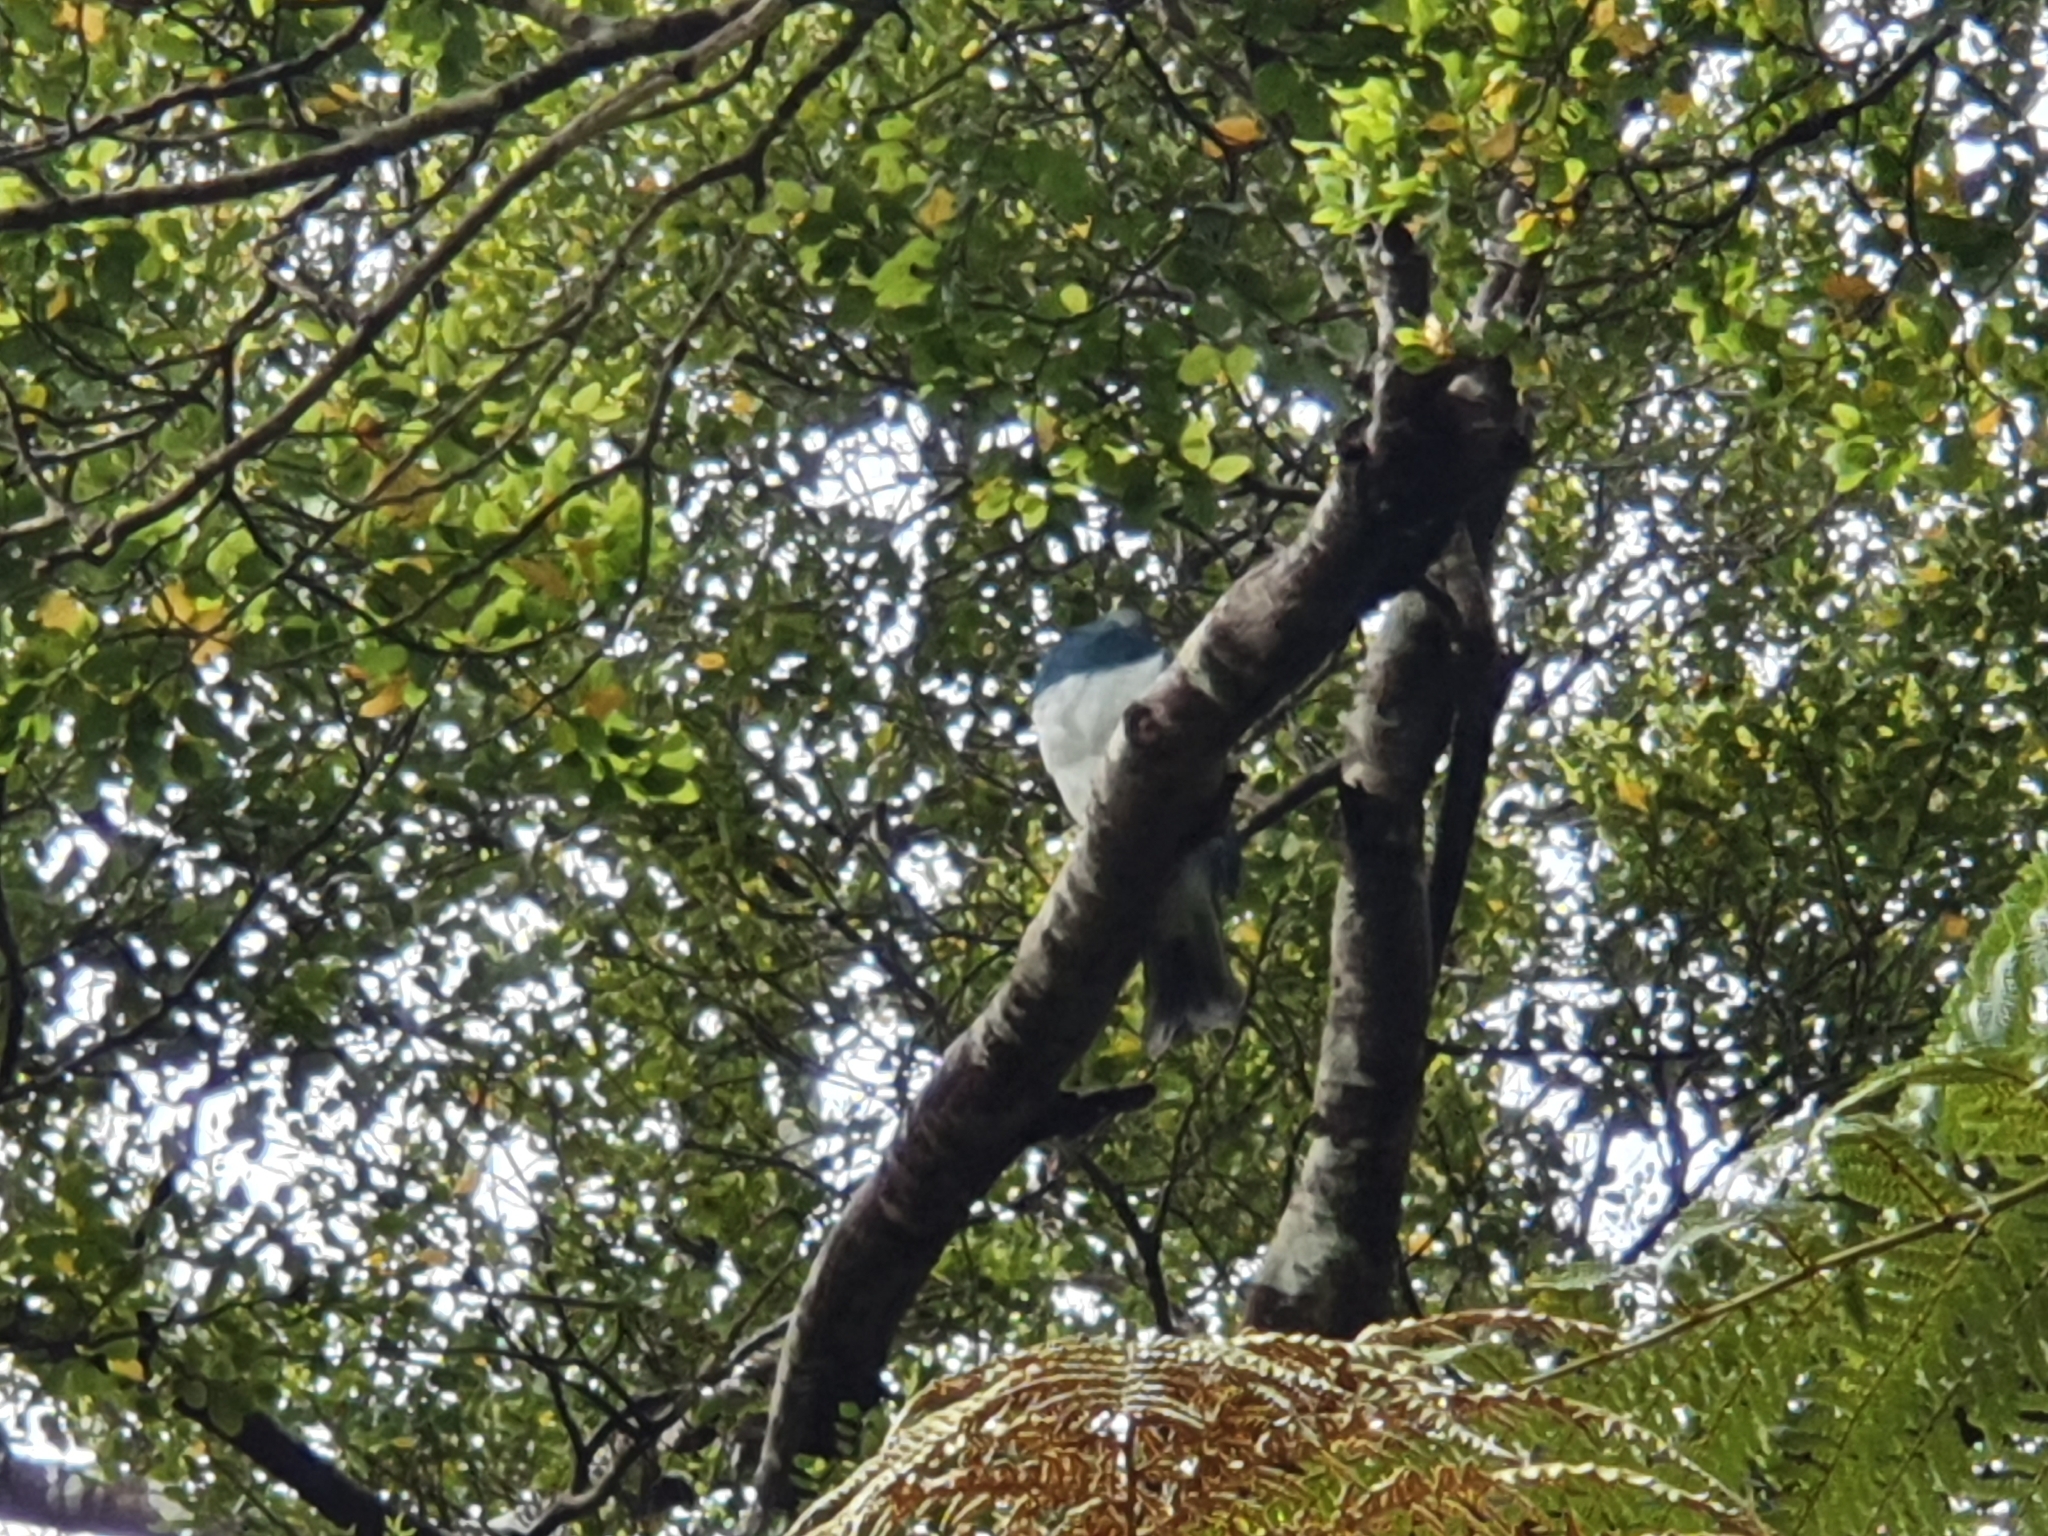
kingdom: Animalia
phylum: Chordata
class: Aves
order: Columbiformes
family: Columbidae
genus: Hemiphaga
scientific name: Hemiphaga novaeseelandiae
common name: New zealand pigeon
